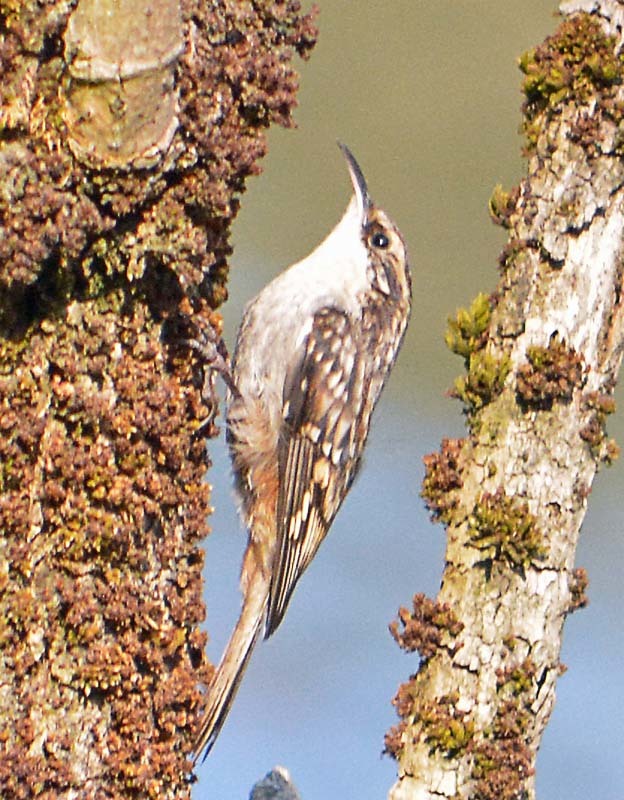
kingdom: Animalia
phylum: Chordata
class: Aves
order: Passeriformes
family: Certhiidae
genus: Certhia
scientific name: Certhia americana
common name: Brown creeper
